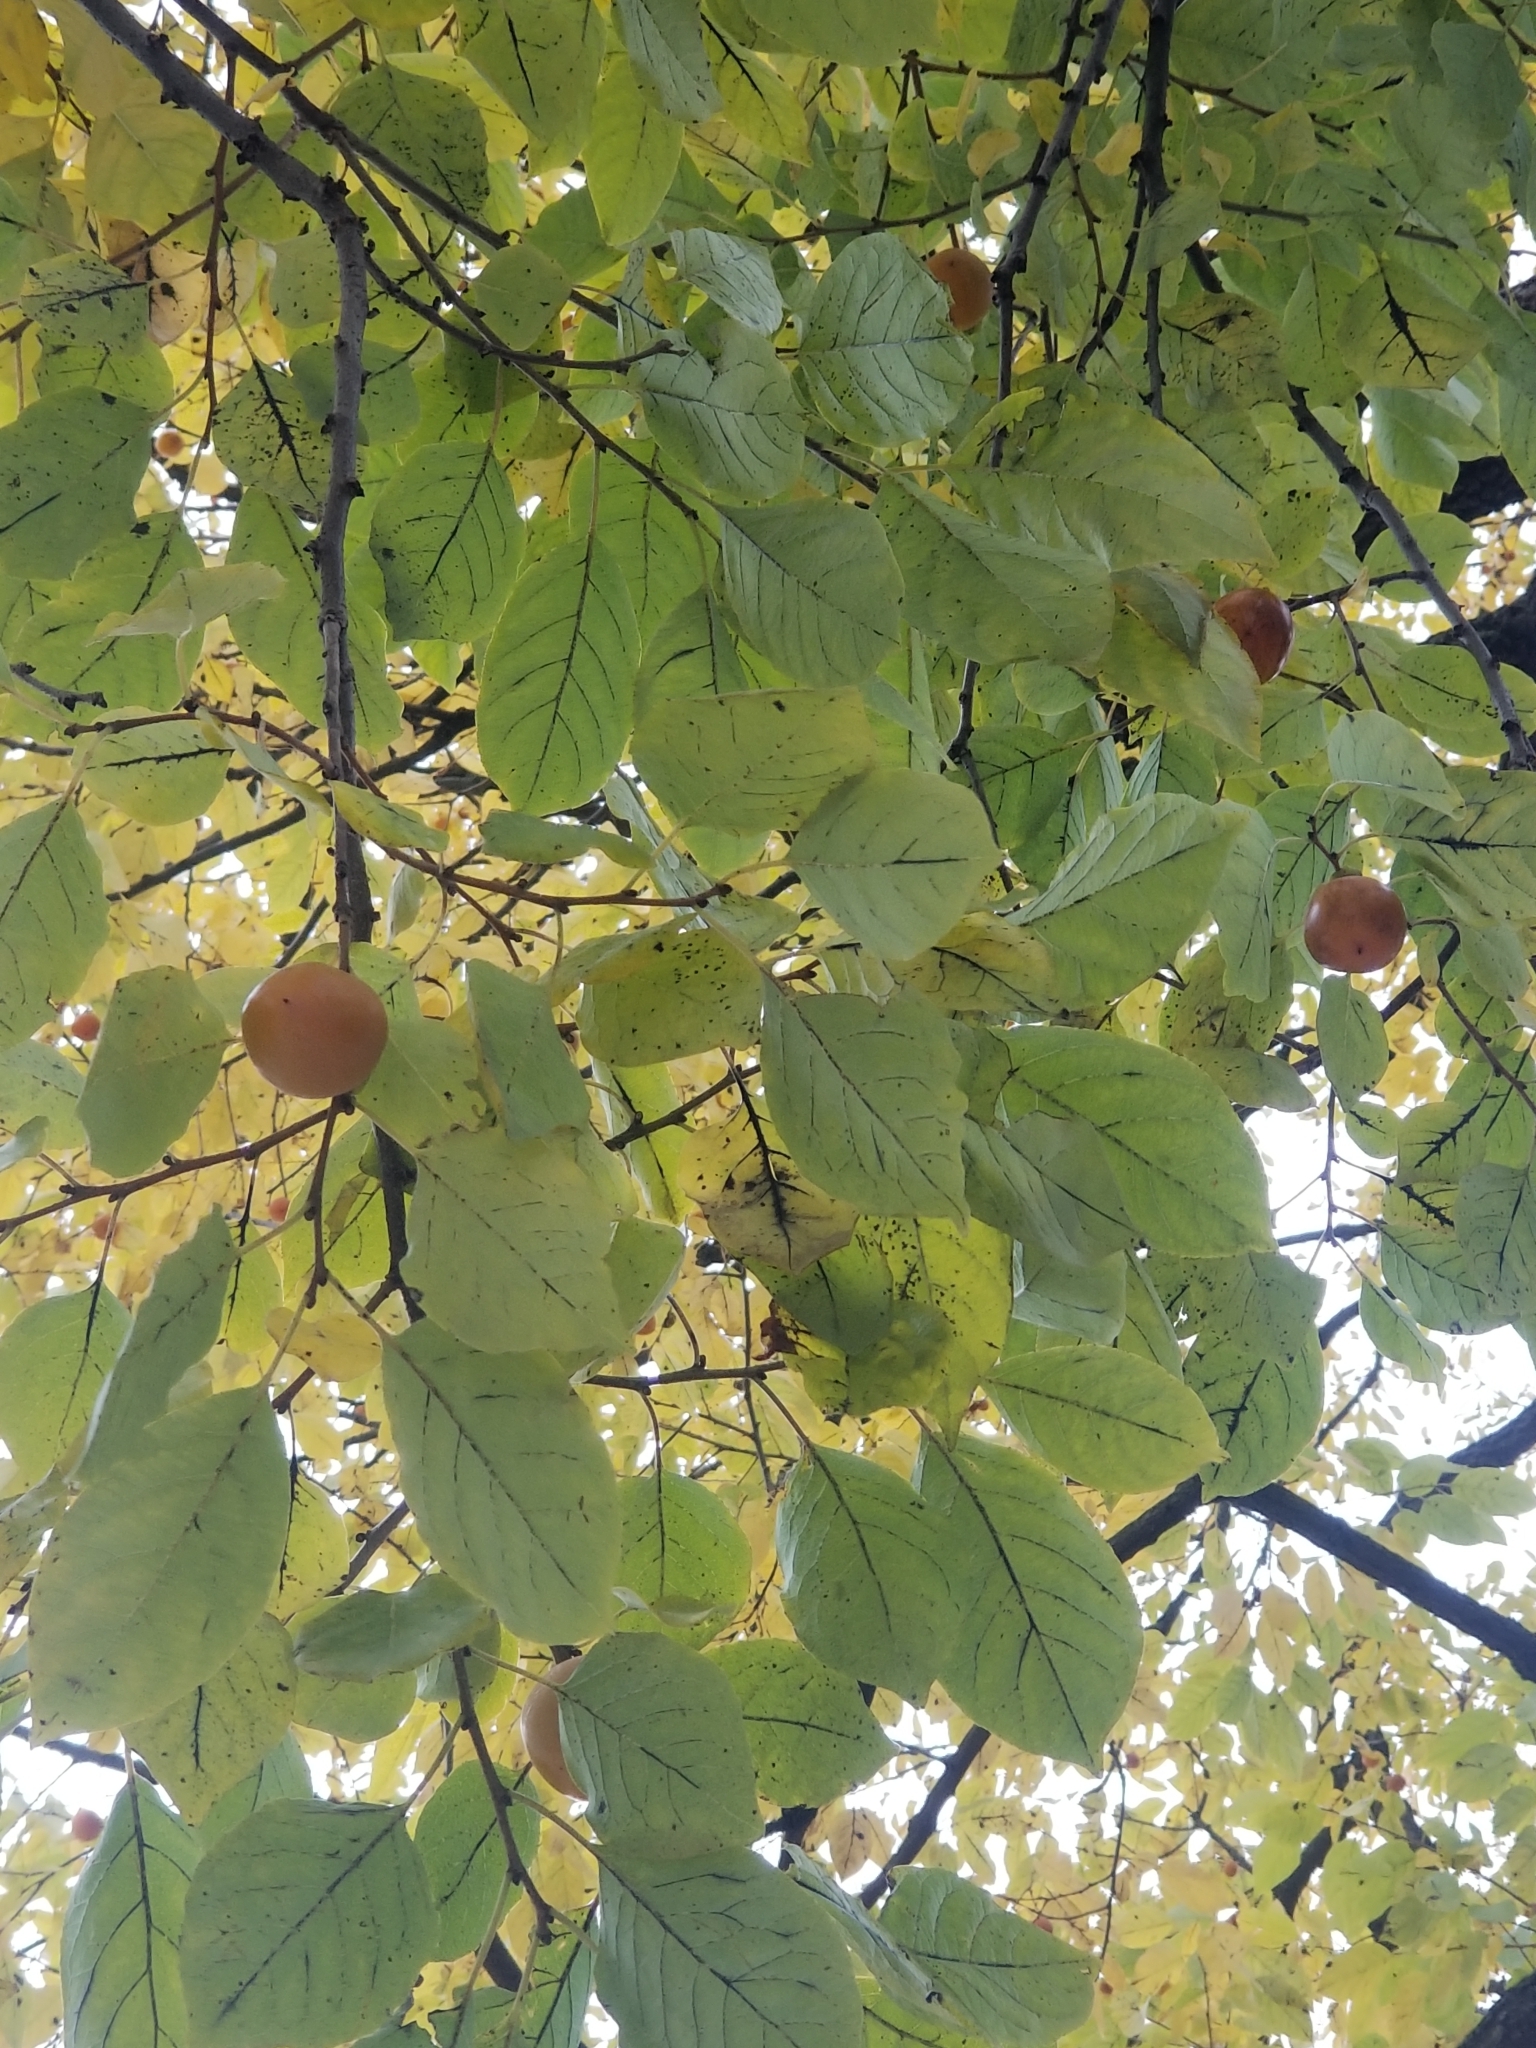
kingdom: Plantae
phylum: Tracheophyta
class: Magnoliopsida
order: Ericales
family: Ebenaceae
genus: Diospyros
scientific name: Diospyros virginiana
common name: Persimmon
